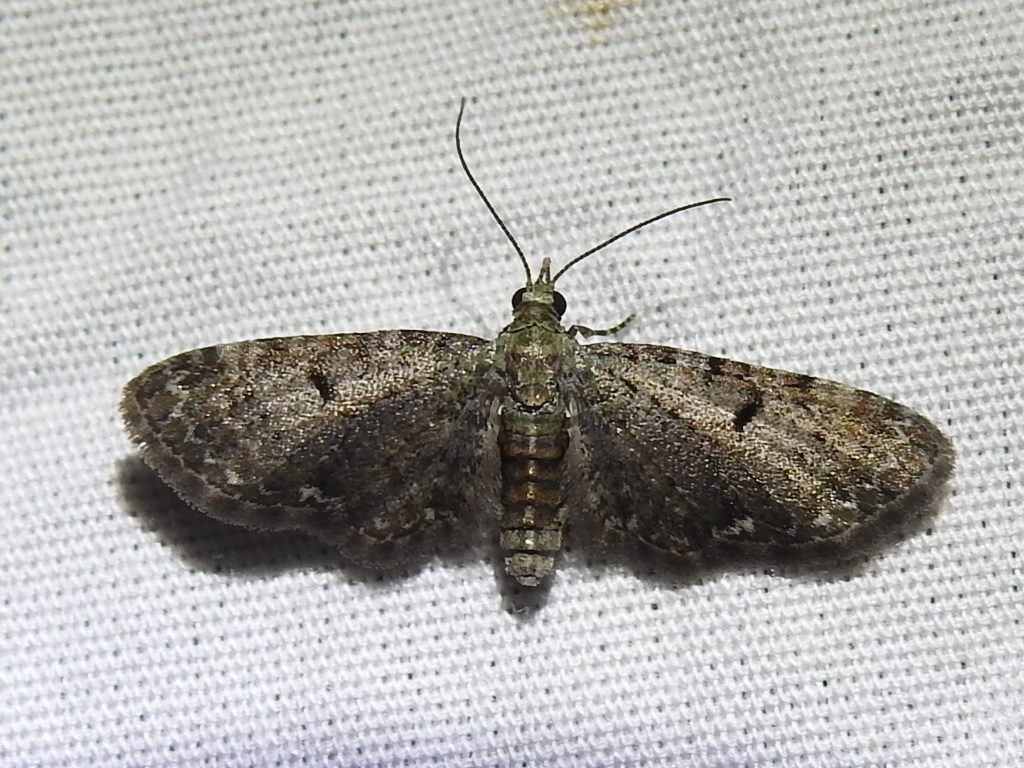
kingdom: Animalia
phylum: Arthropoda
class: Insecta
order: Lepidoptera
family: Geometridae
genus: Eupithecia
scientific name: Eupithecia miserulata
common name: Common eupithecia
